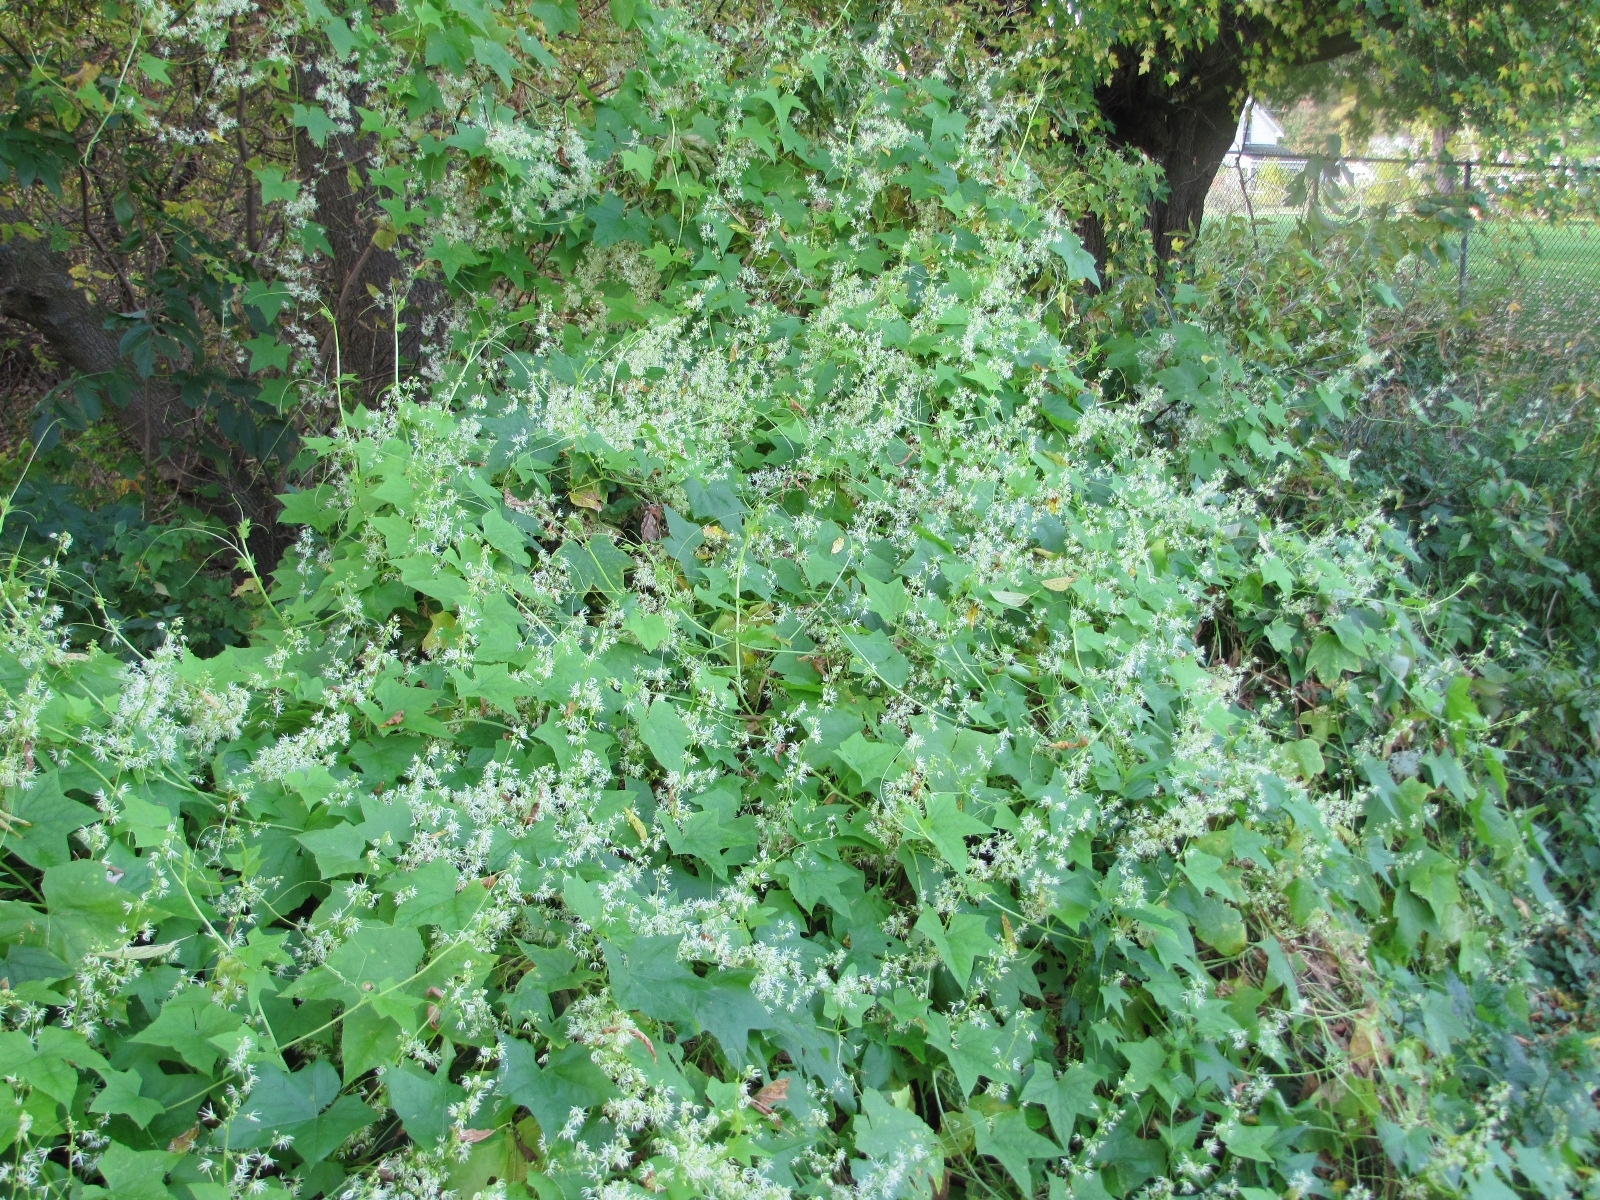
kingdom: Plantae
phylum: Tracheophyta
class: Magnoliopsida
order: Cucurbitales
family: Cucurbitaceae
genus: Echinocystis
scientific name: Echinocystis lobata
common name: Wild cucumber
